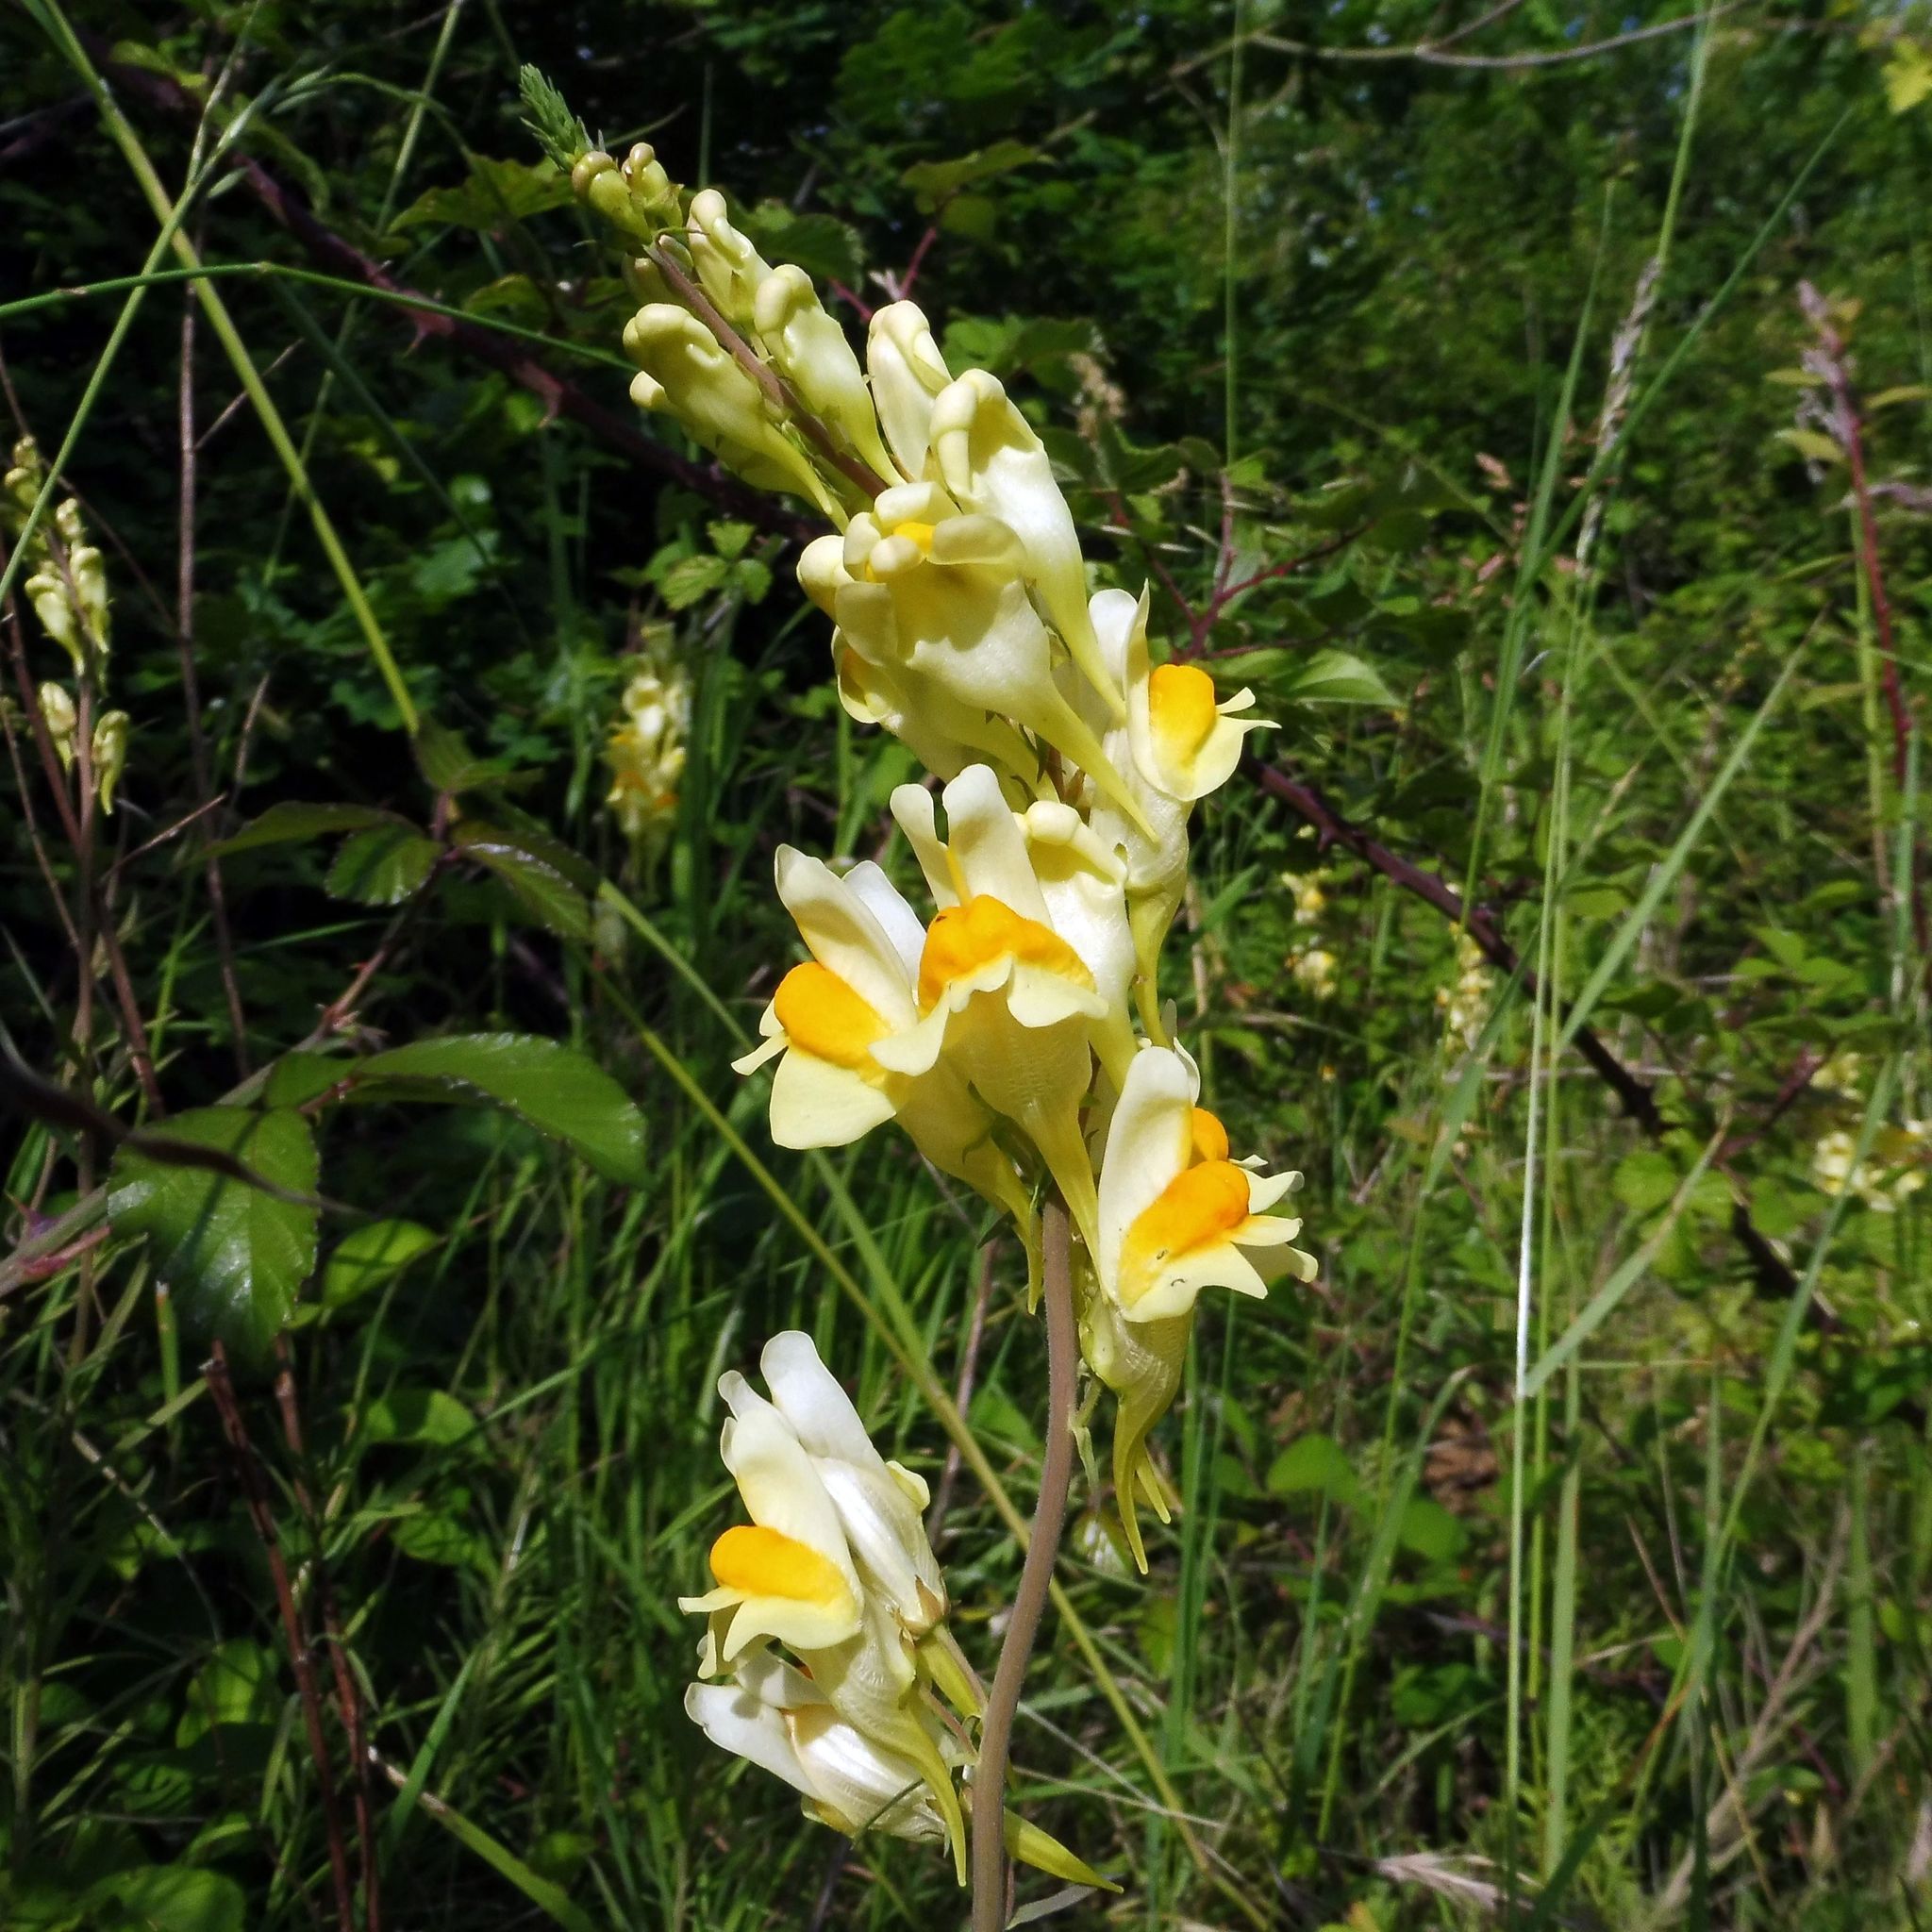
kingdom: Plantae
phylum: Tracheophyta
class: Magnoliopsida
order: Lamiales
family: Plantaginaceae
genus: Linaria
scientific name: Linaria vulgaris
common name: Butter and eggs
